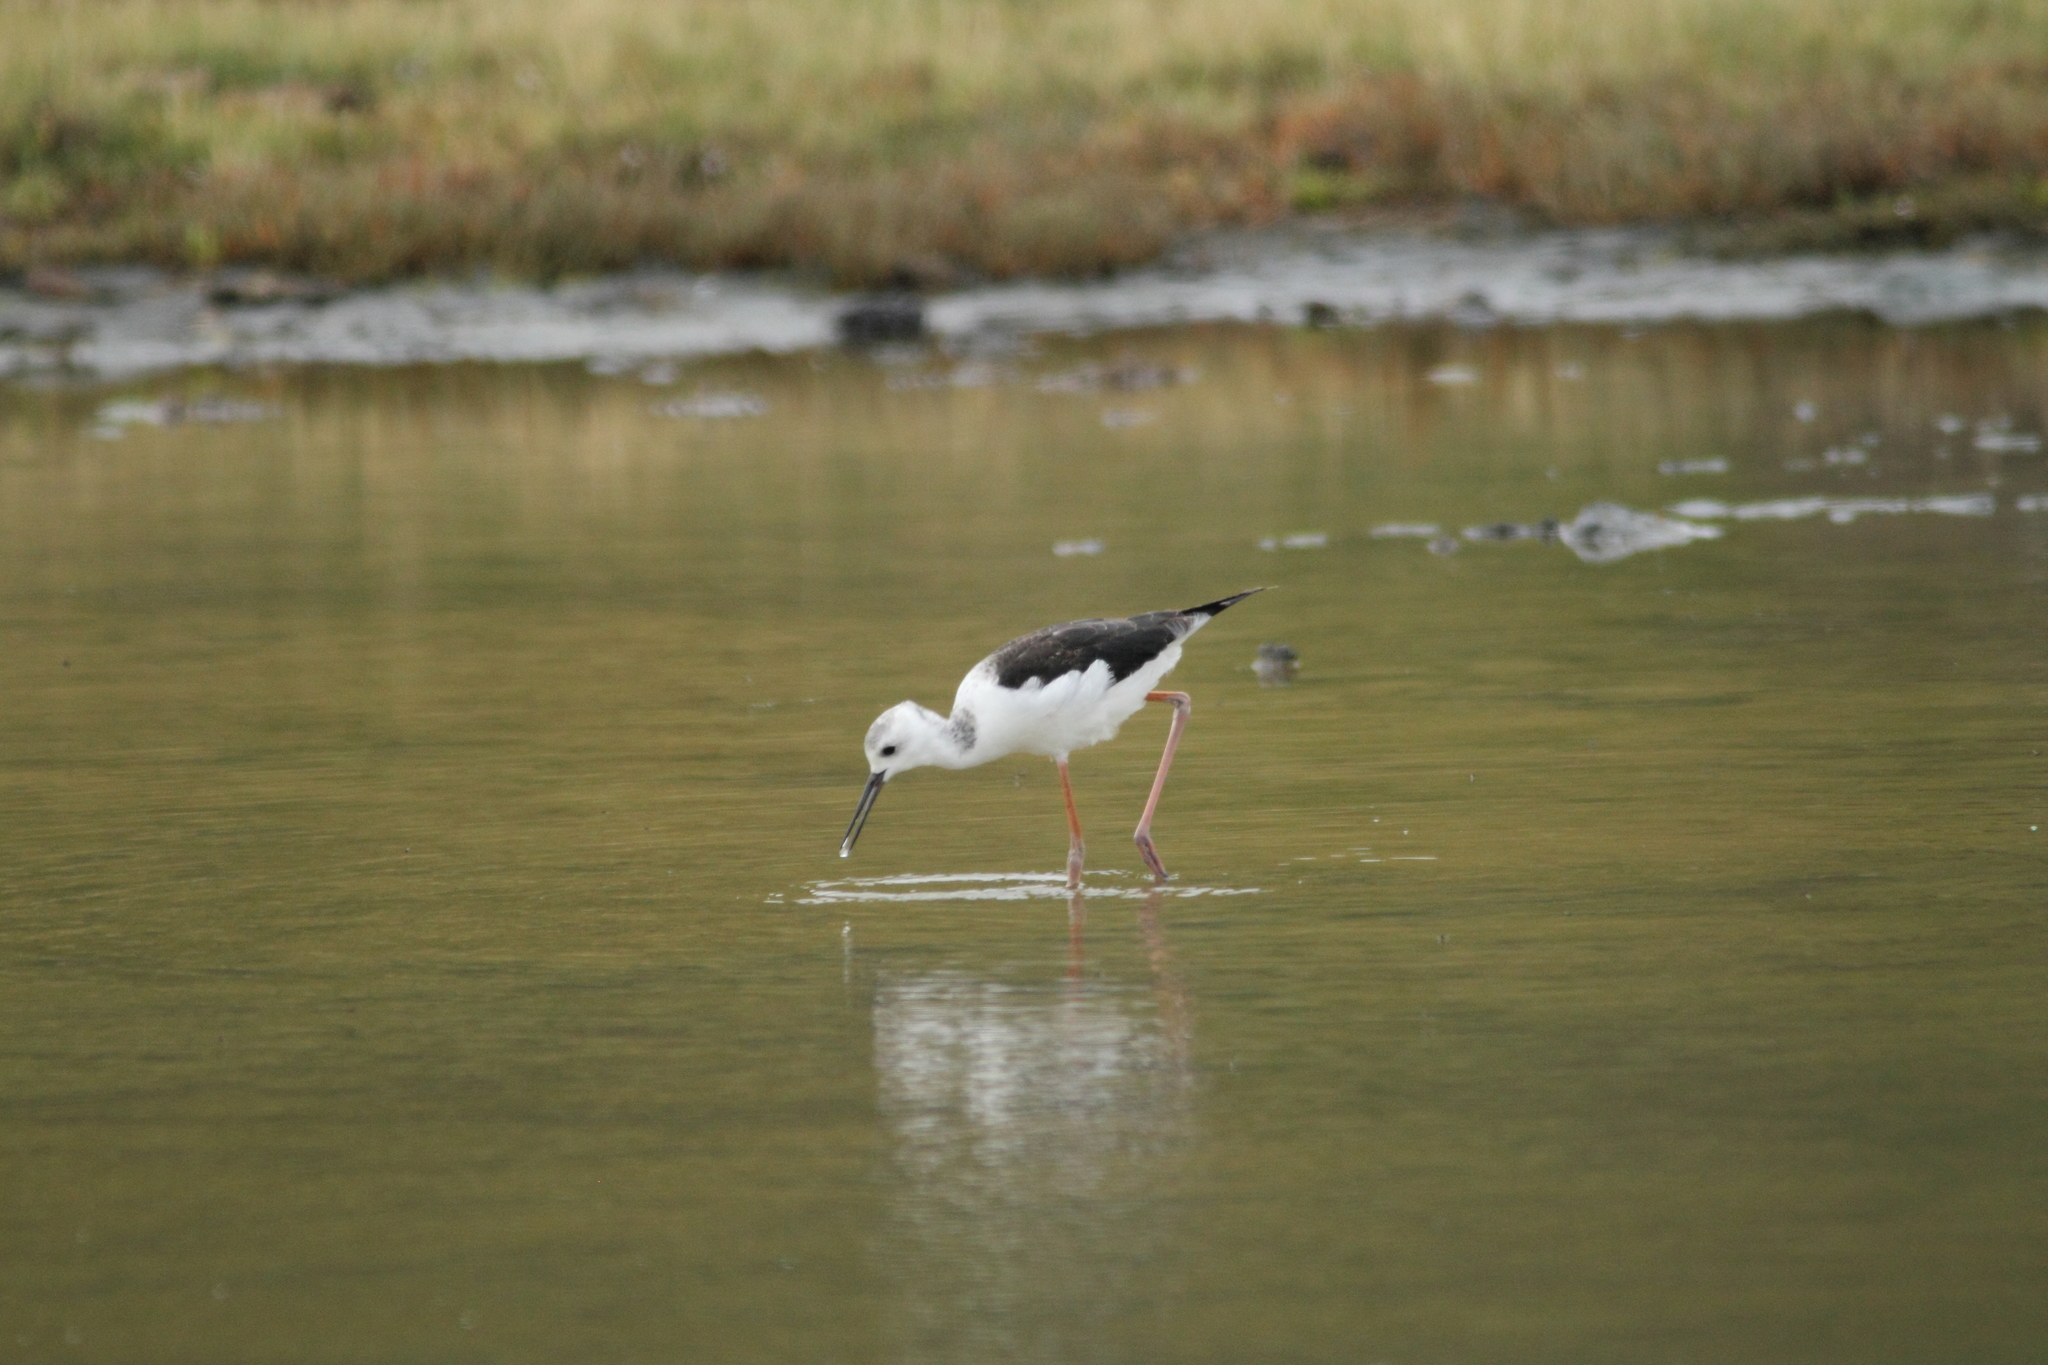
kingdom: Animalia
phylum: Chordata
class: Aves
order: Charadriiformes
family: Recurvirostridae
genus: Himantopus
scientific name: Himantopus leucocephalus
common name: White-headed stilt
